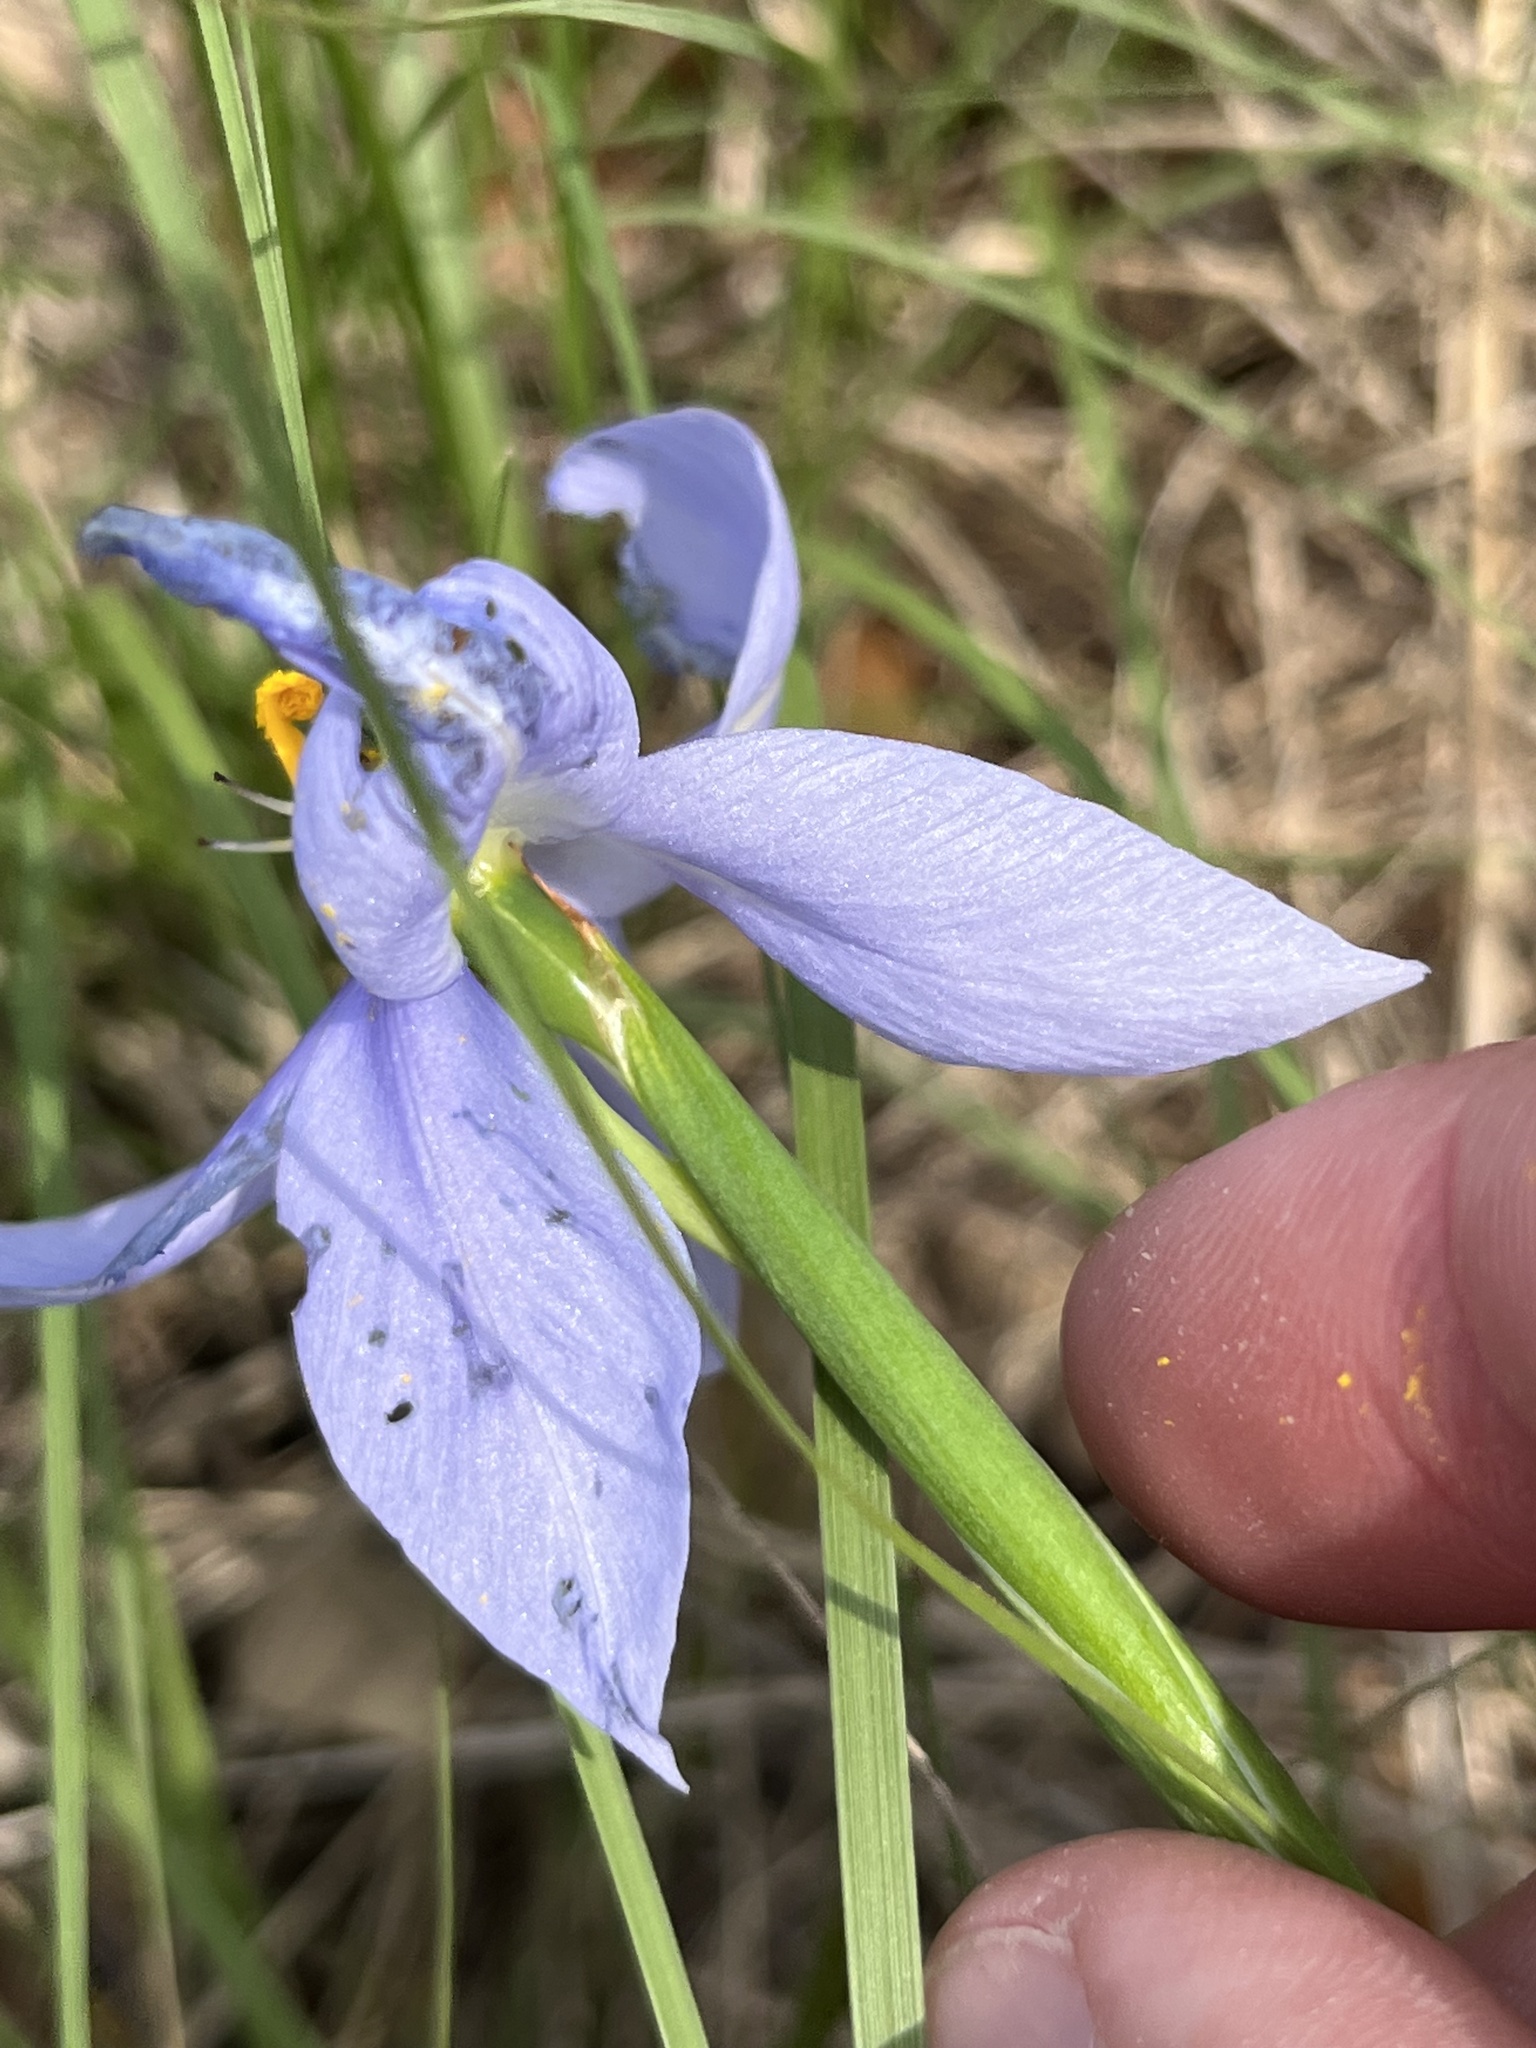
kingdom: Plantae
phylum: Tracheophyta
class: Liliopsida
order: Asparagales
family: Iridaceae
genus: Nemastylis
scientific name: Nemastylis geminiflora
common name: Prairie celestial
